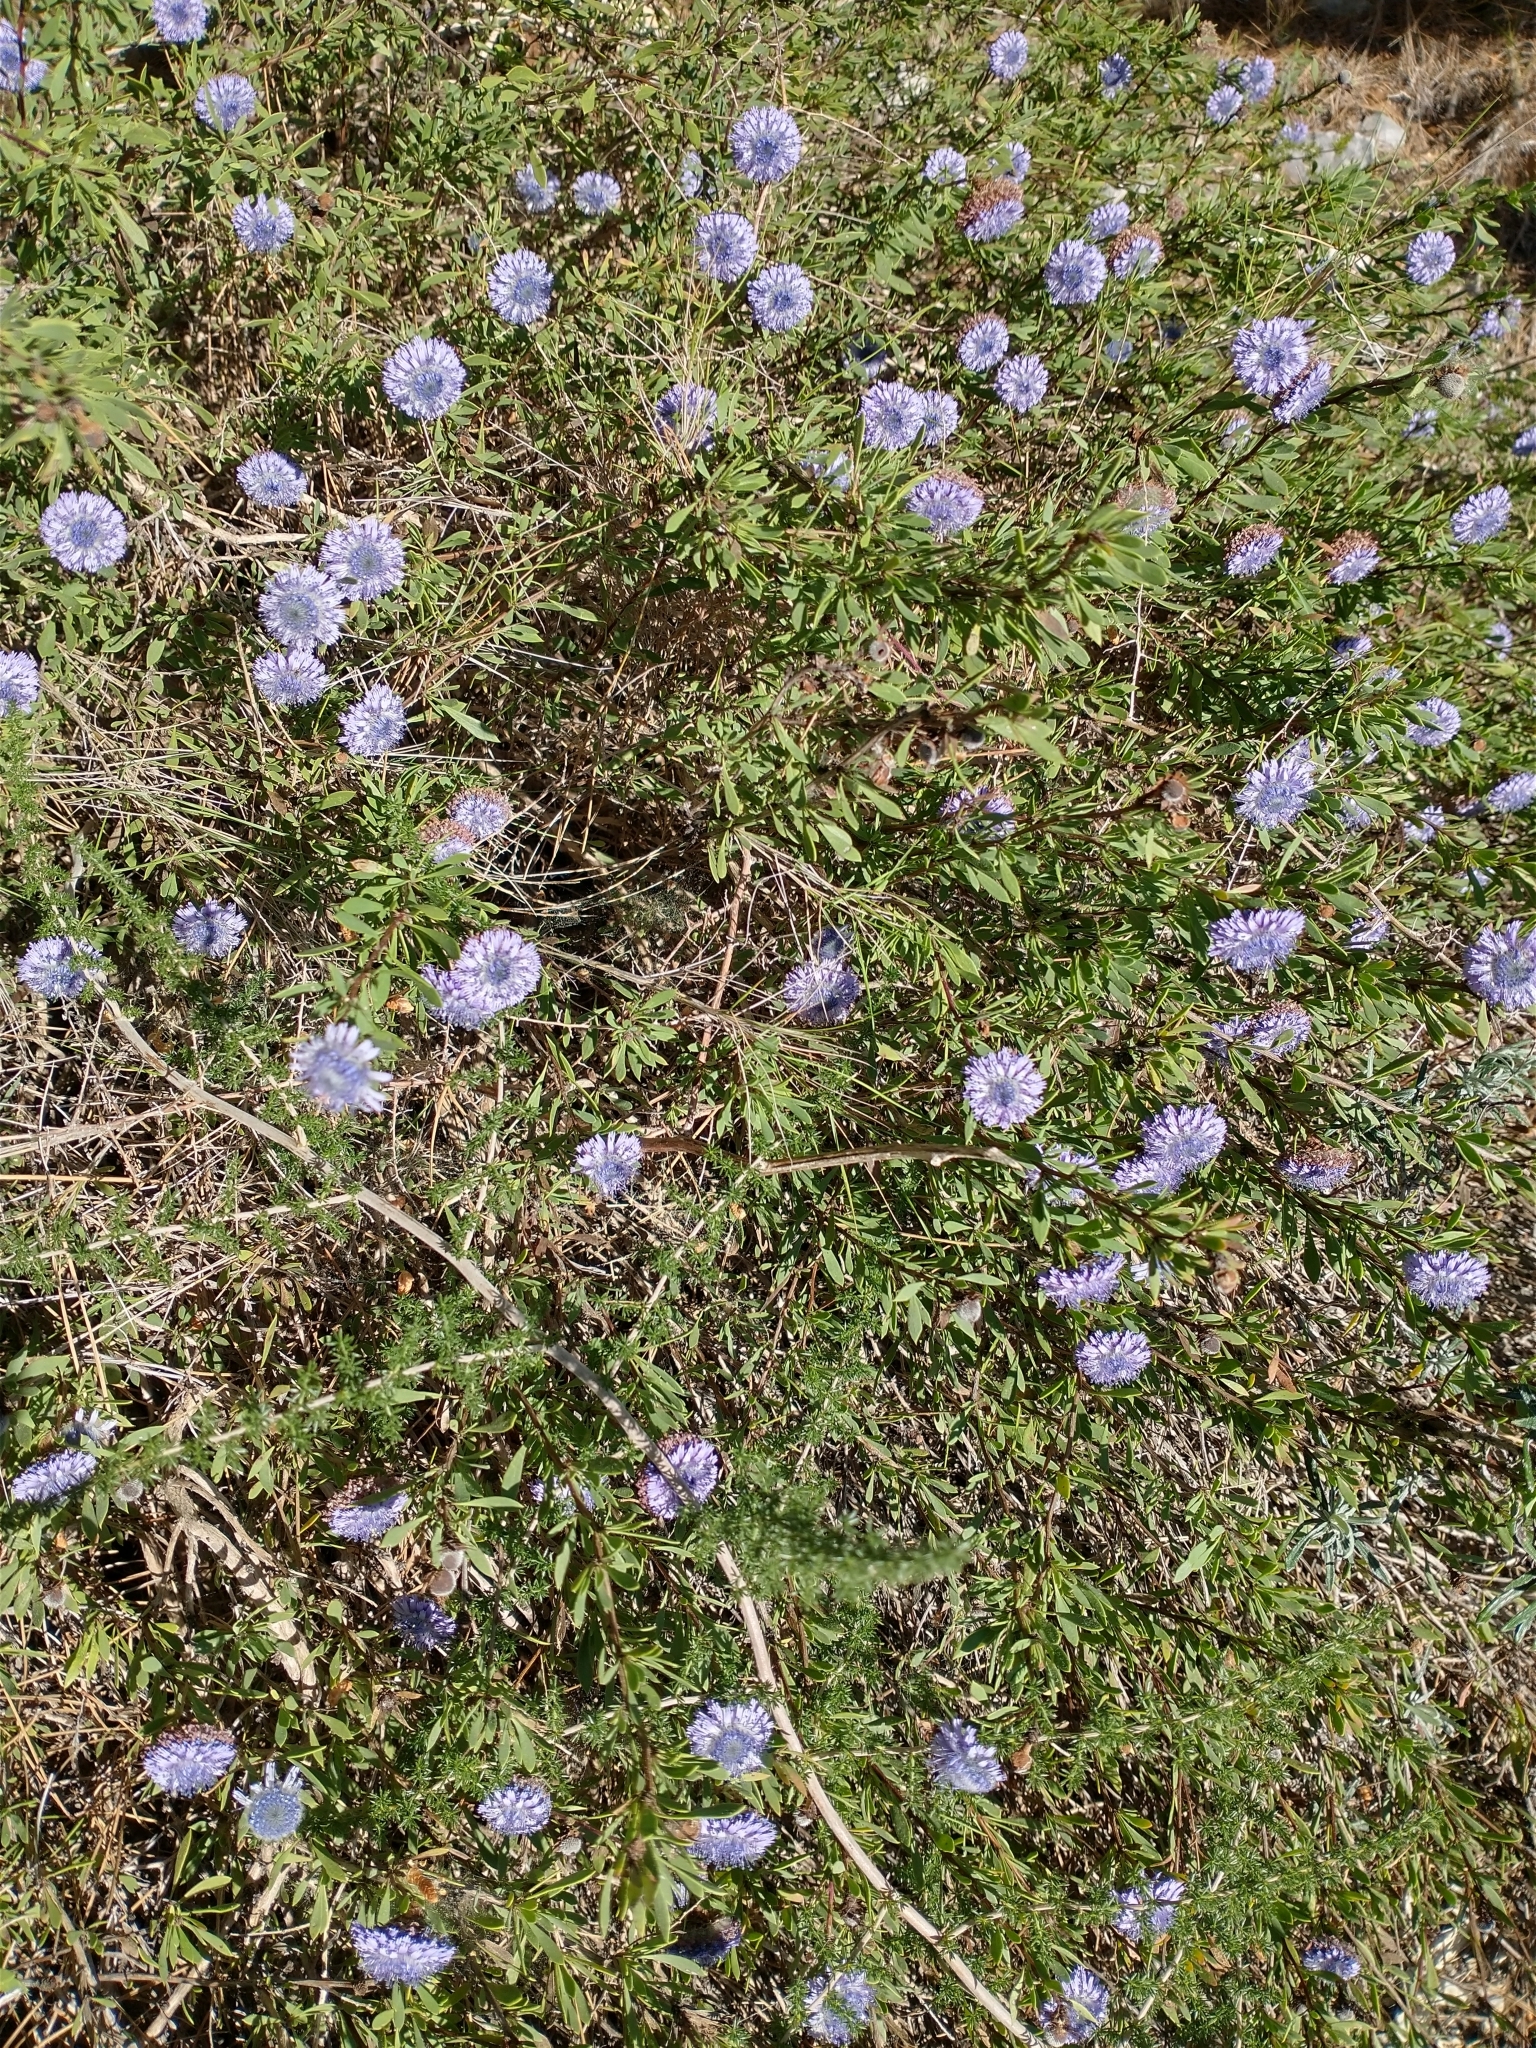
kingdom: Plantae
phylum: Tracheophyta
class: Magnoliopsida
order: Lamiales
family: Plantaginaceae
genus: Globularia
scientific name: Globularia alypum
